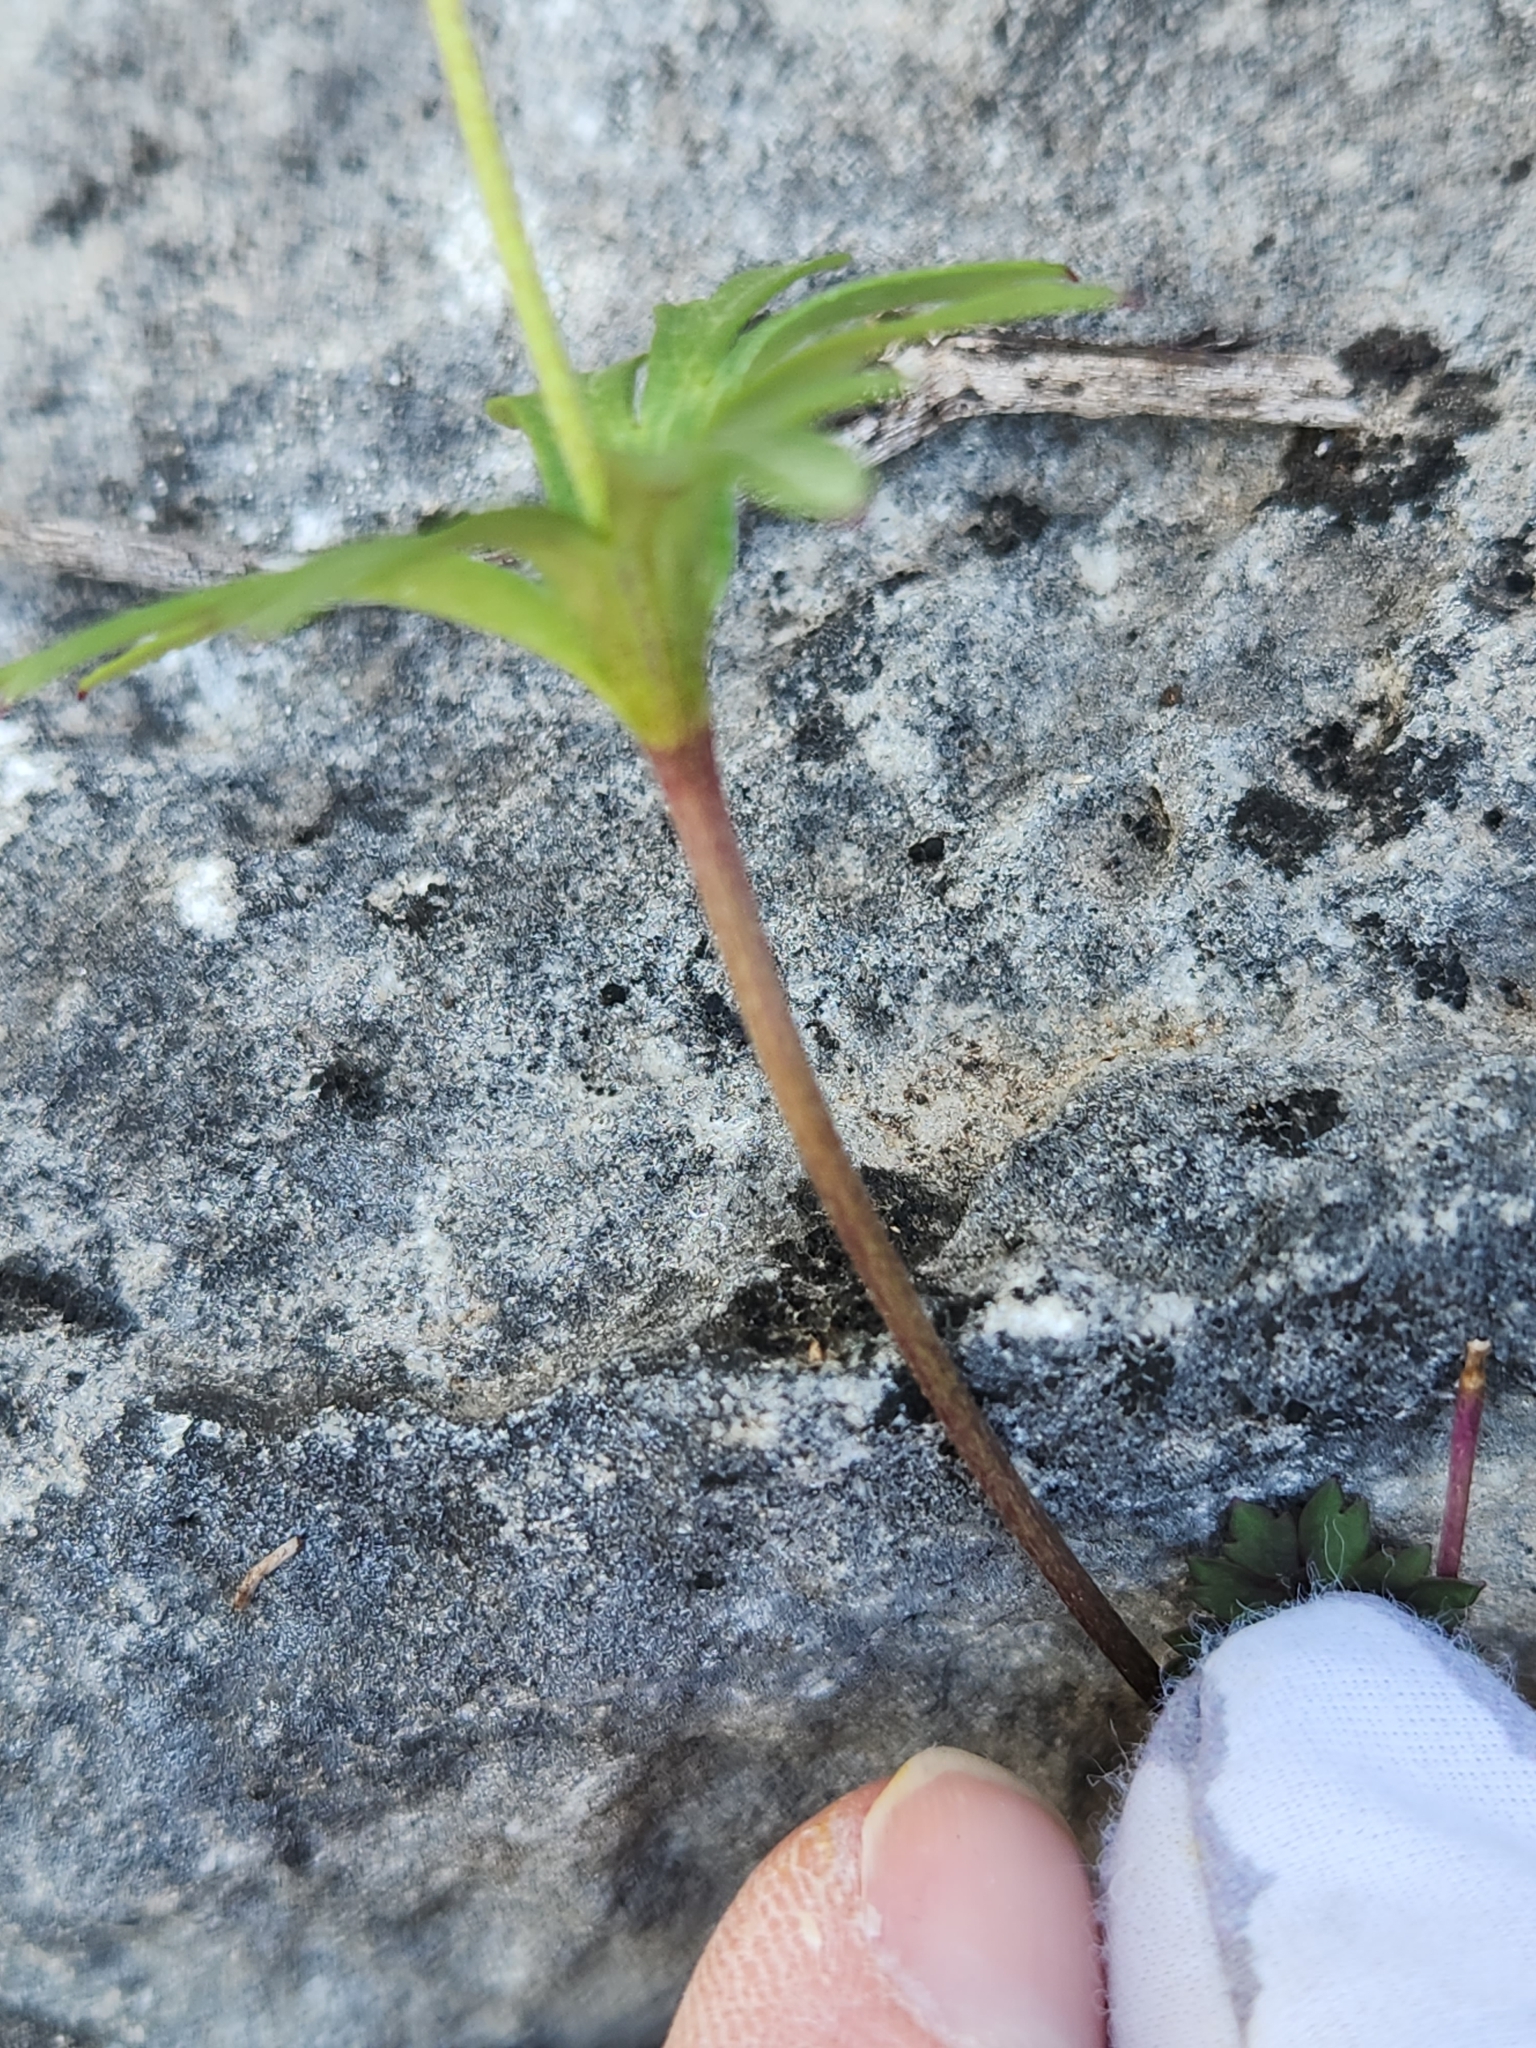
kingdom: Plantae
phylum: Tracheophyta
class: Magnoliopsida
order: Ranunculales
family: Ranunculaceae
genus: Anemone
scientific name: Anemone edwardsiana
